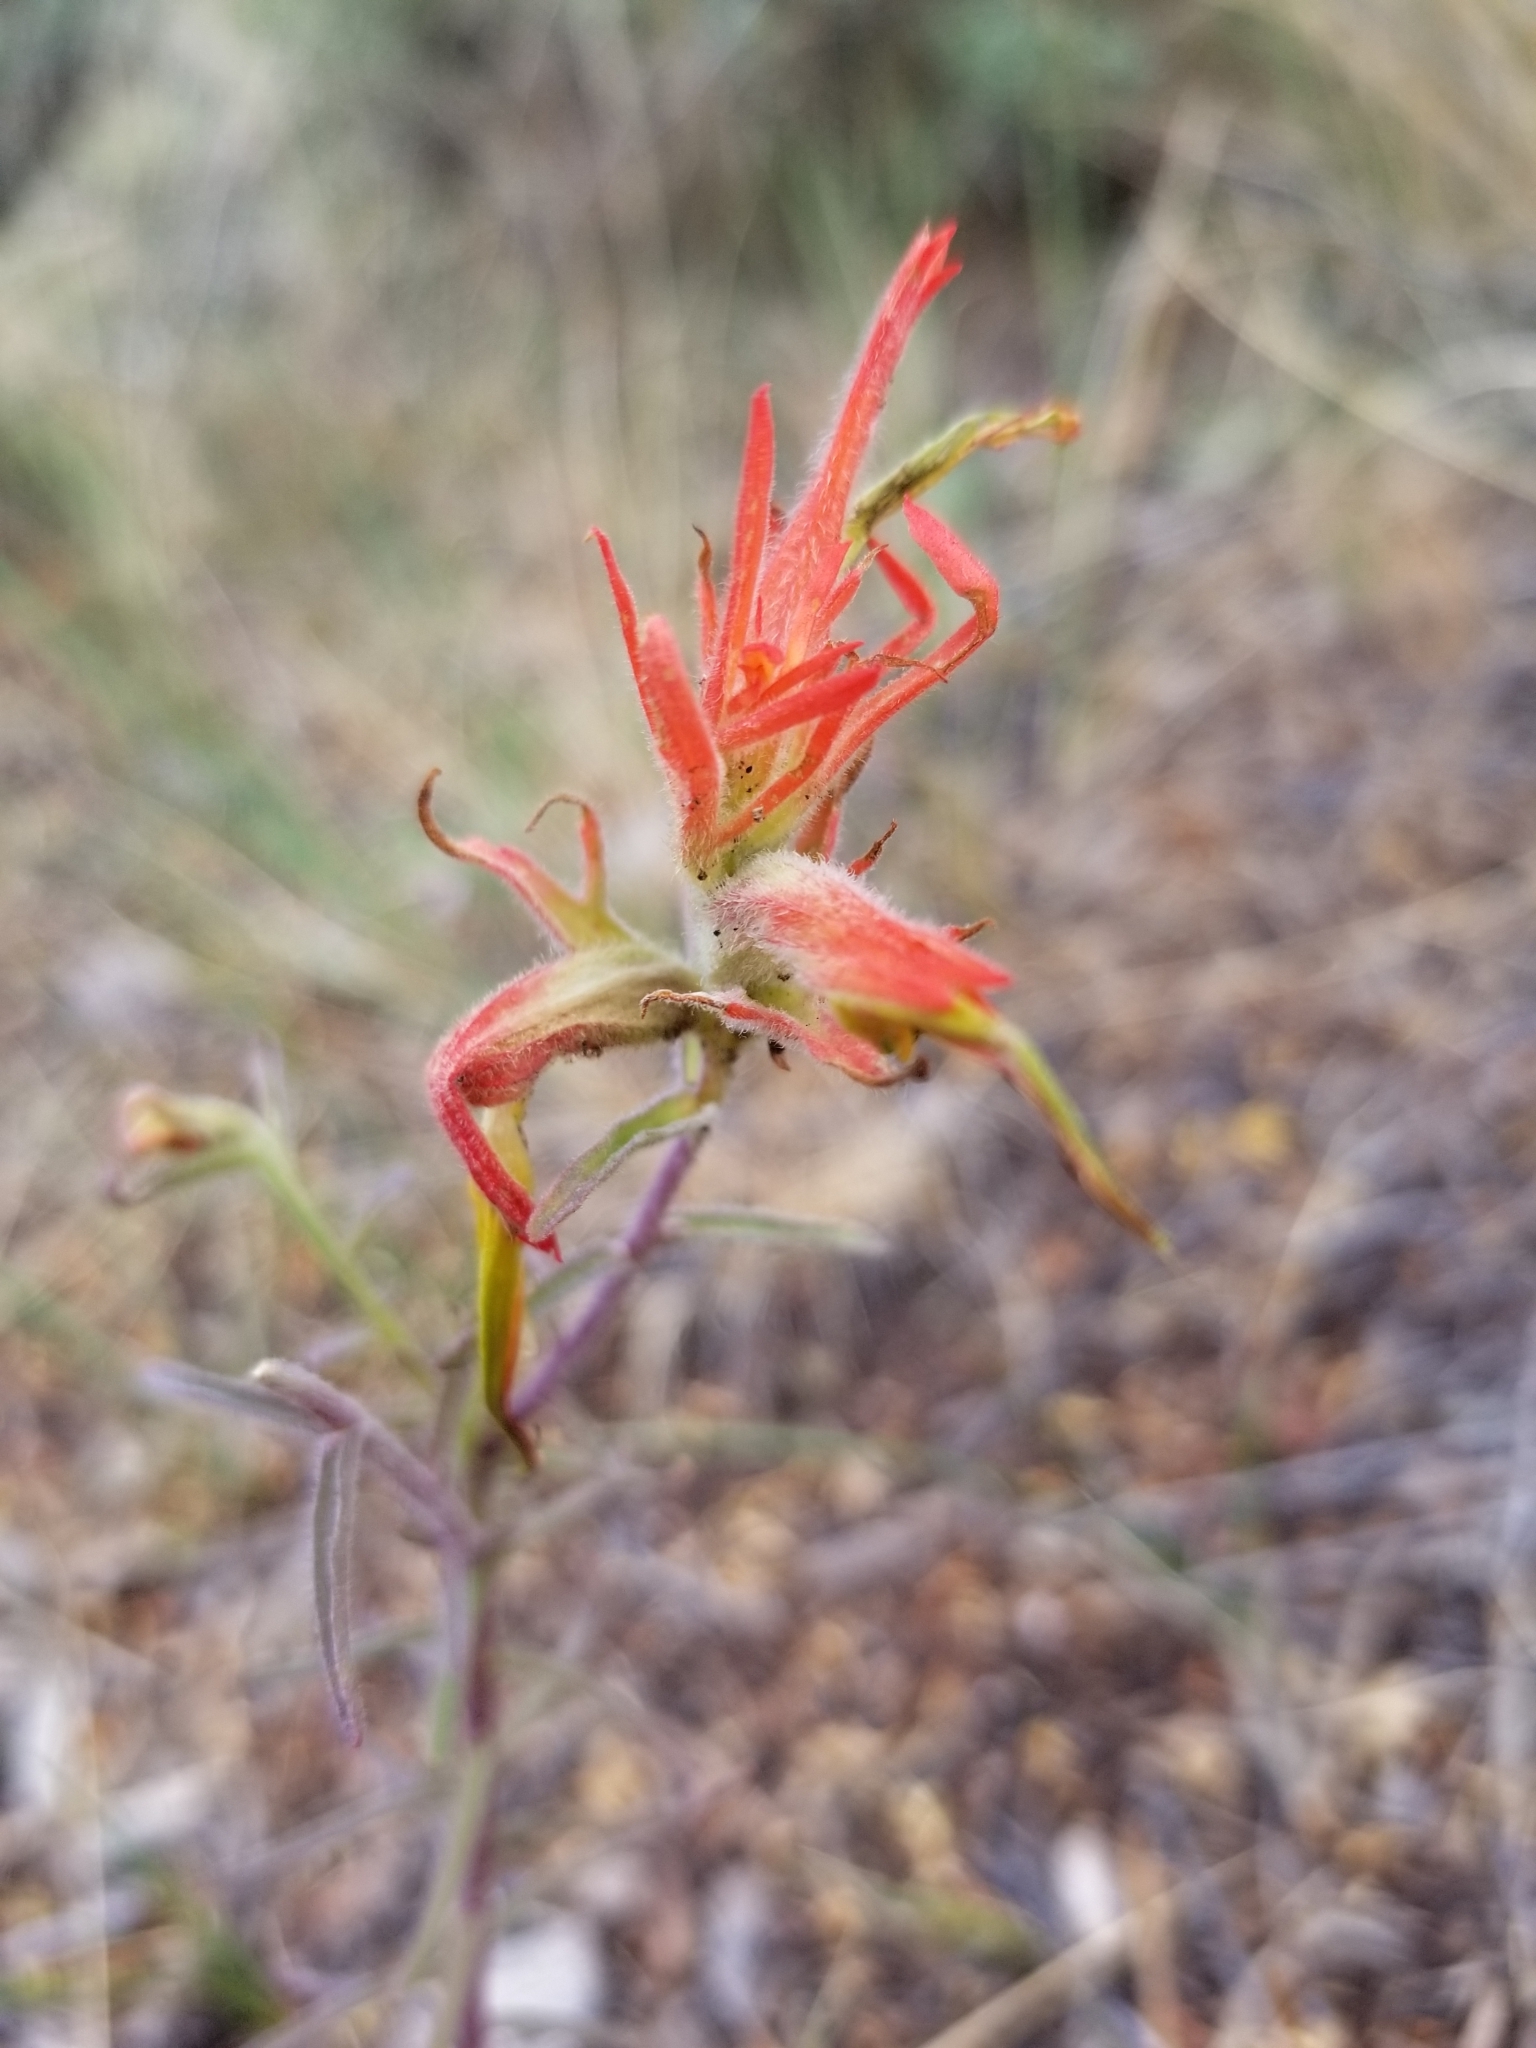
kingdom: Plantae
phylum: Tracheophyta
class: Magnoliopsida
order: Lamiales
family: Orobanchaceae
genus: Castilleja
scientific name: Castilleja linariifolia
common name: Wyoming paintbrush
